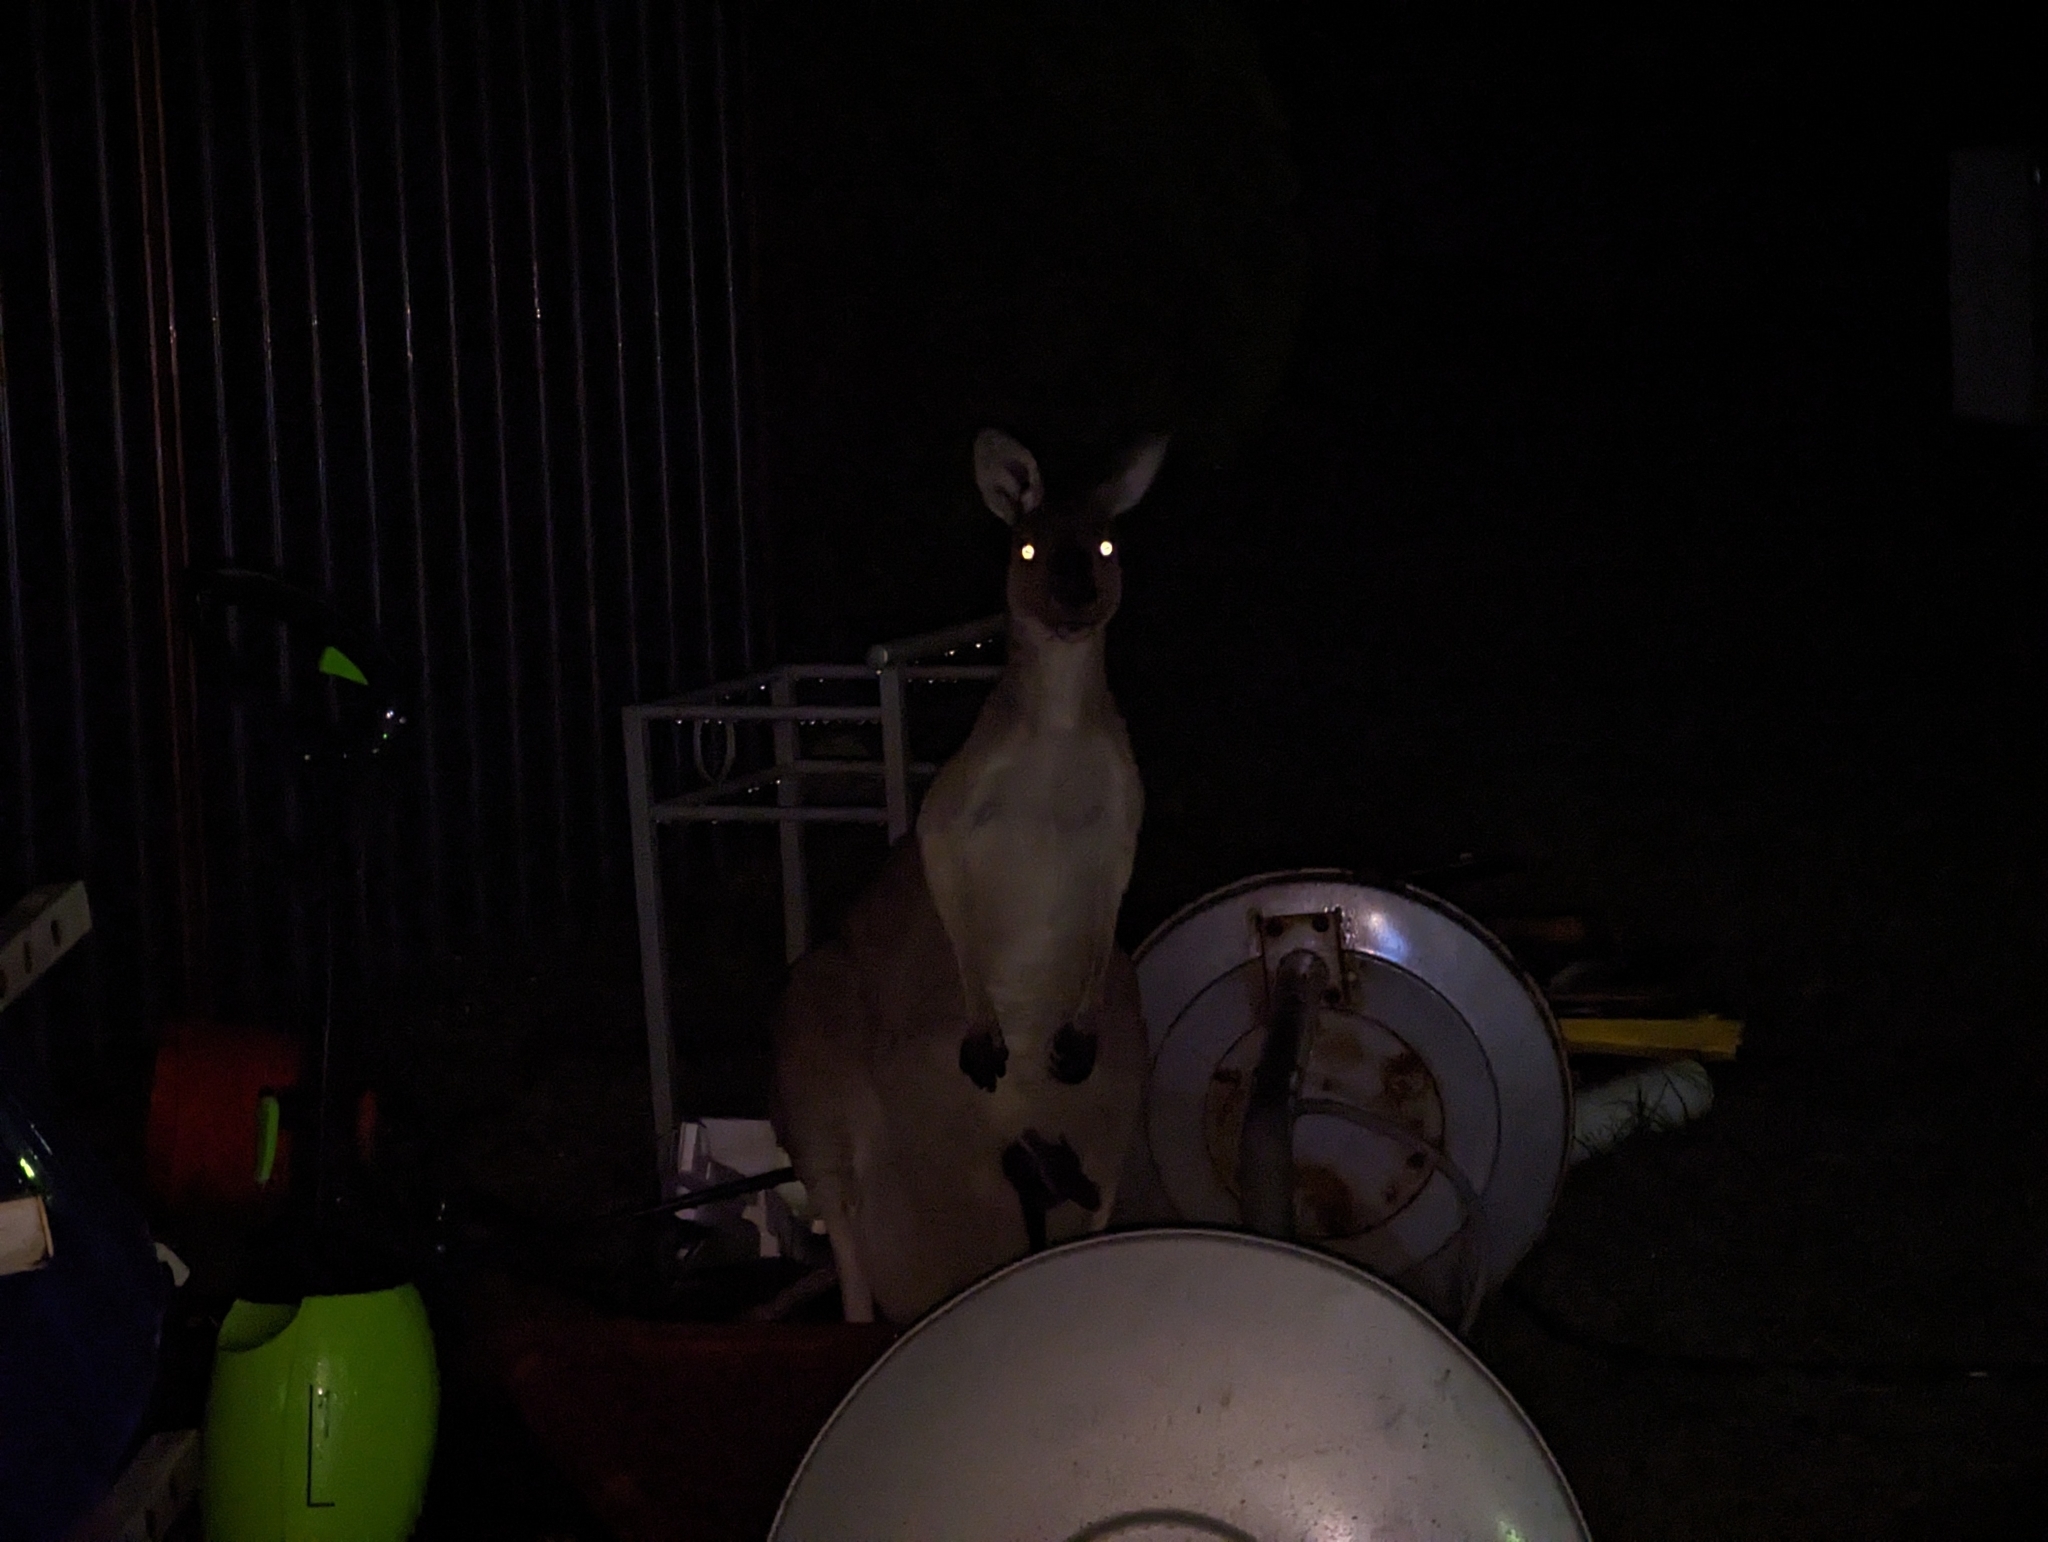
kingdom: Animalia
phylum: Chordata
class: Mammalia
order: Diprotodontia
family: Macropodidae
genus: Macropus
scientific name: Macropus fuliginosus
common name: Western grey kangaroo
